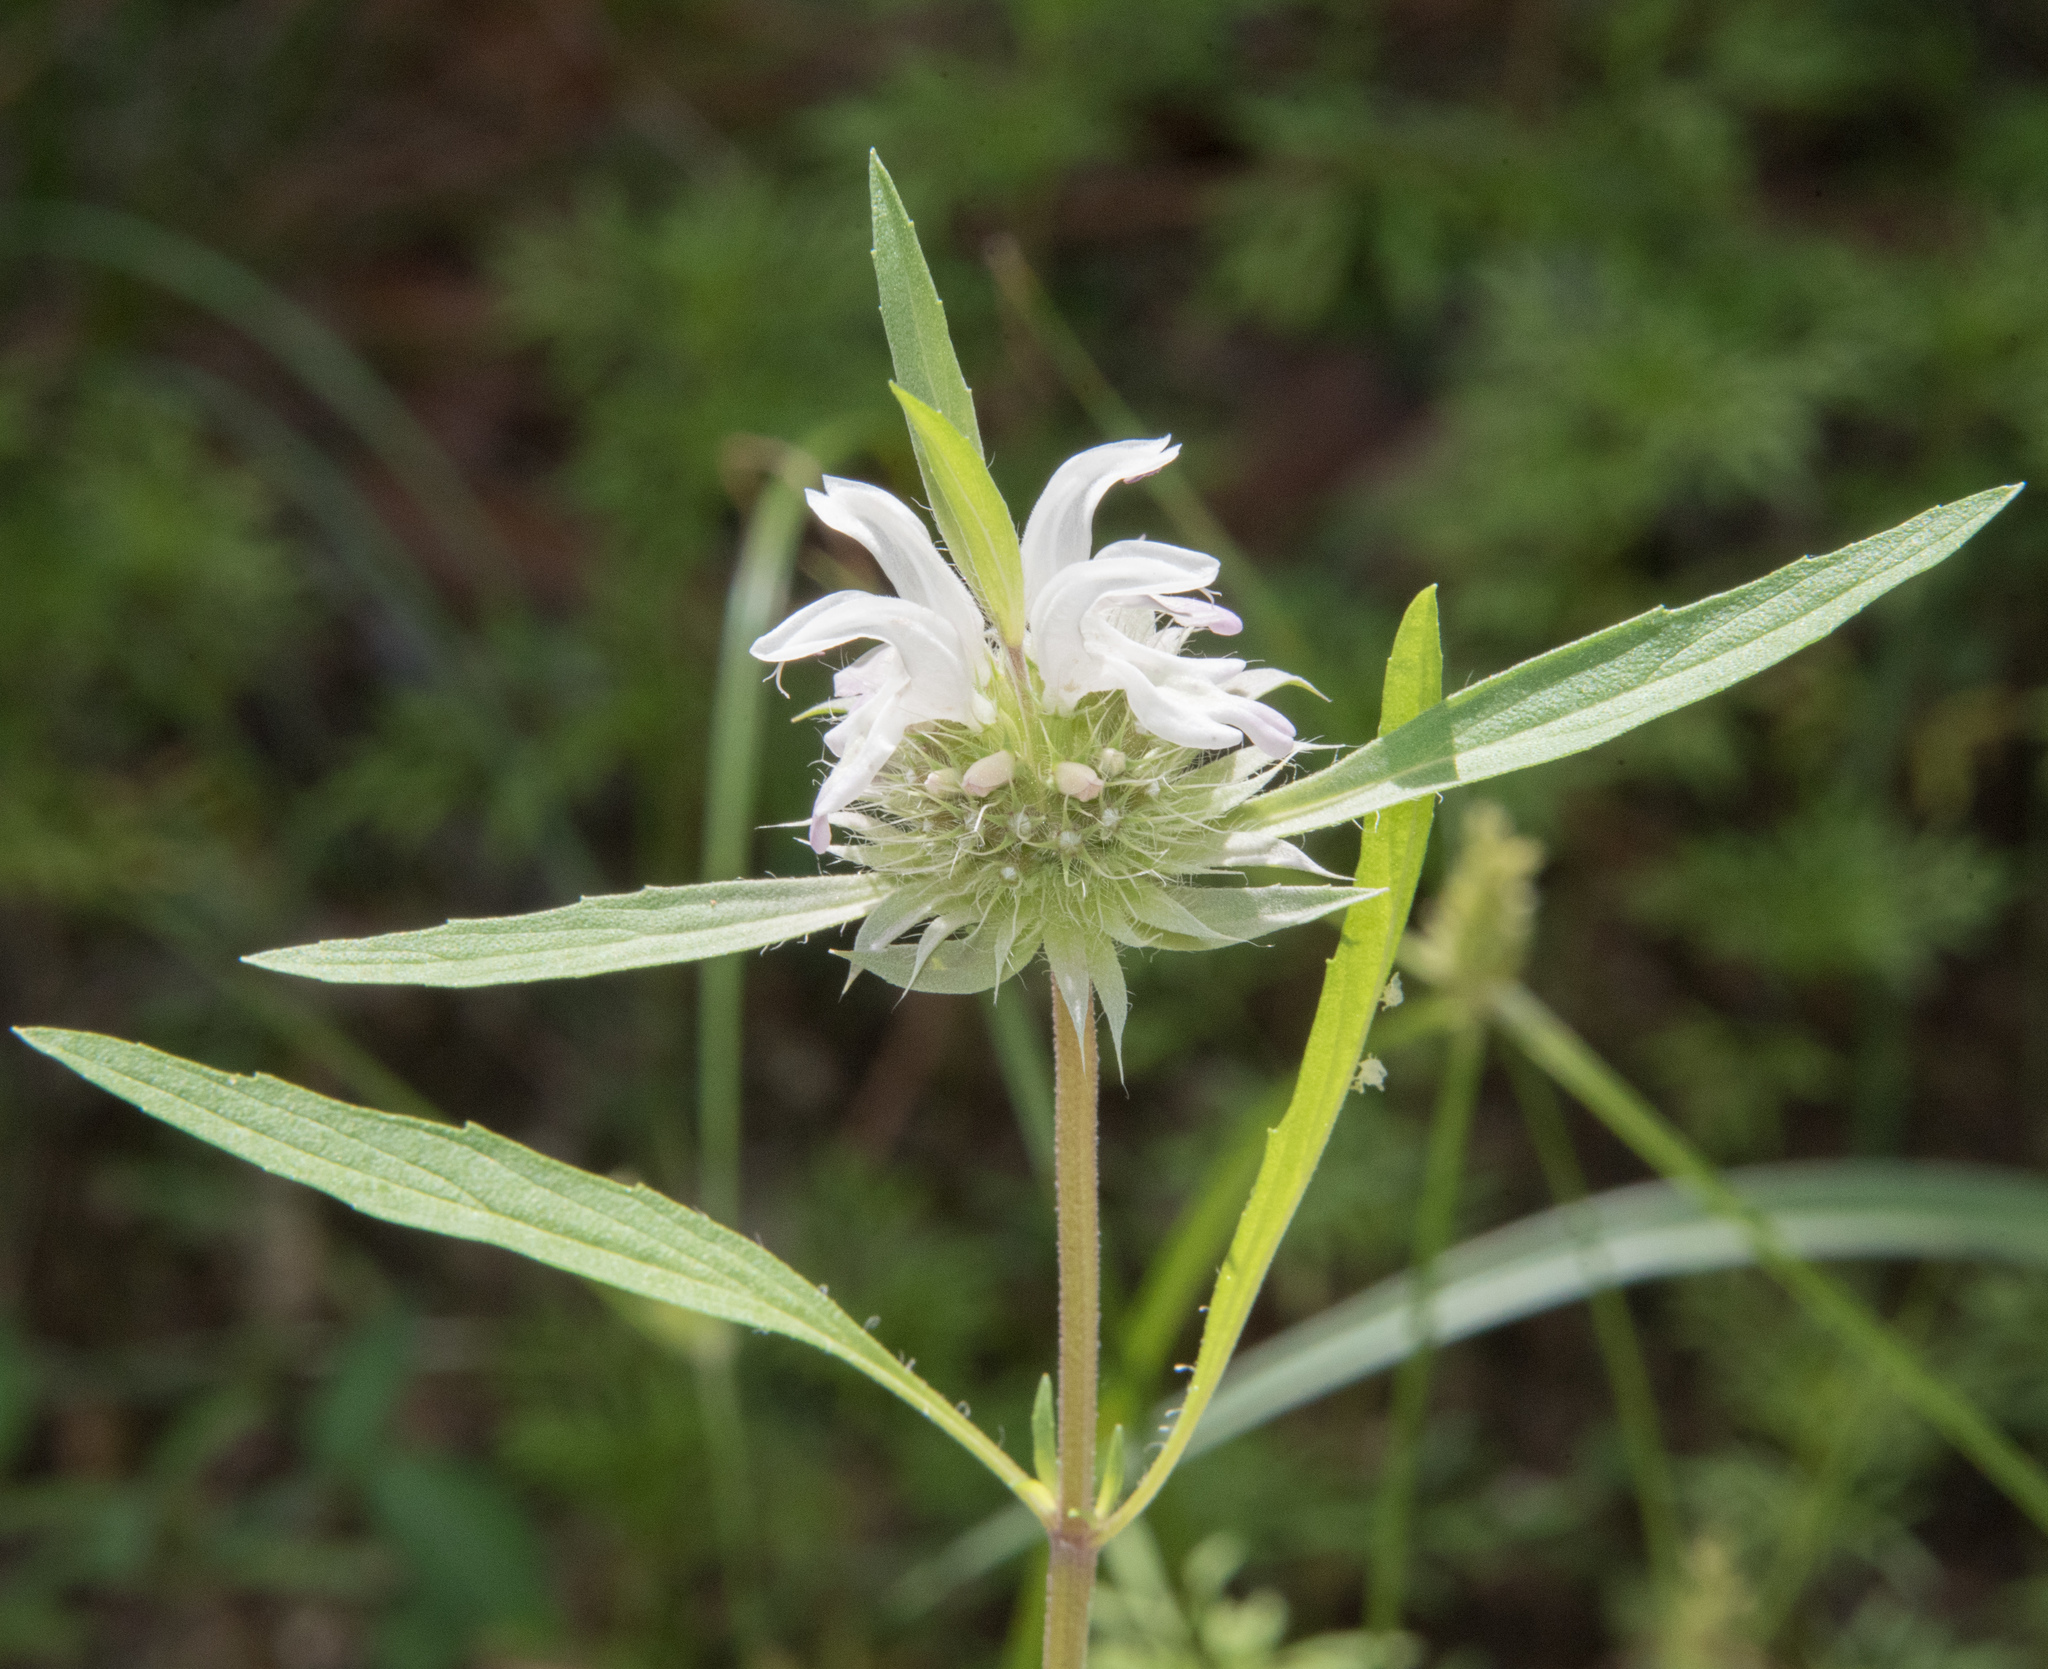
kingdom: Plantae
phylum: Tracheophyta
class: Magnoliopsida
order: Lamiales
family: Lamiaceae
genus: Monarda
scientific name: Monarda citriodora
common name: Lemon beebalm
